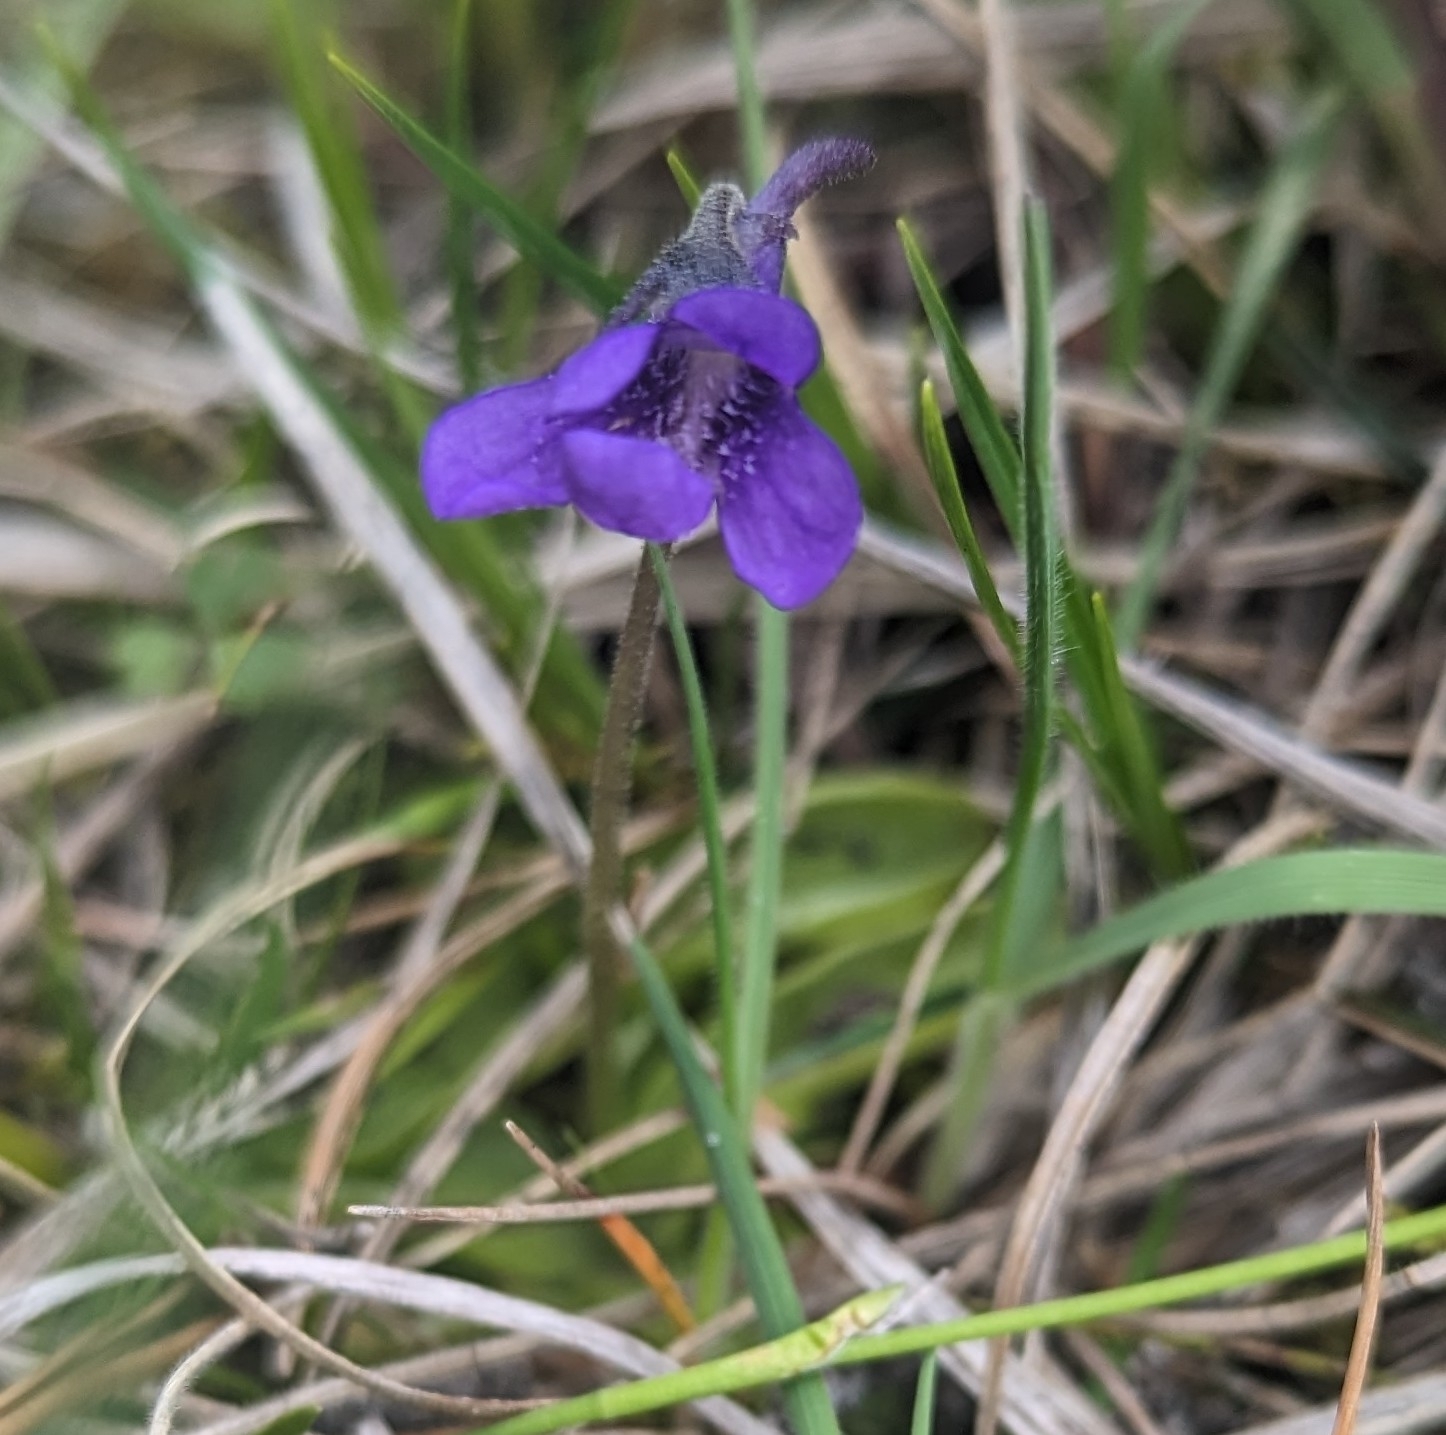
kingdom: Plantae
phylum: Tracheophyta
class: Magnoliopsida
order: Lamiales
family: Lentibulariaceae
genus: Pinguicula
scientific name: Pinguicula vulgaris
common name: Common butterwort
